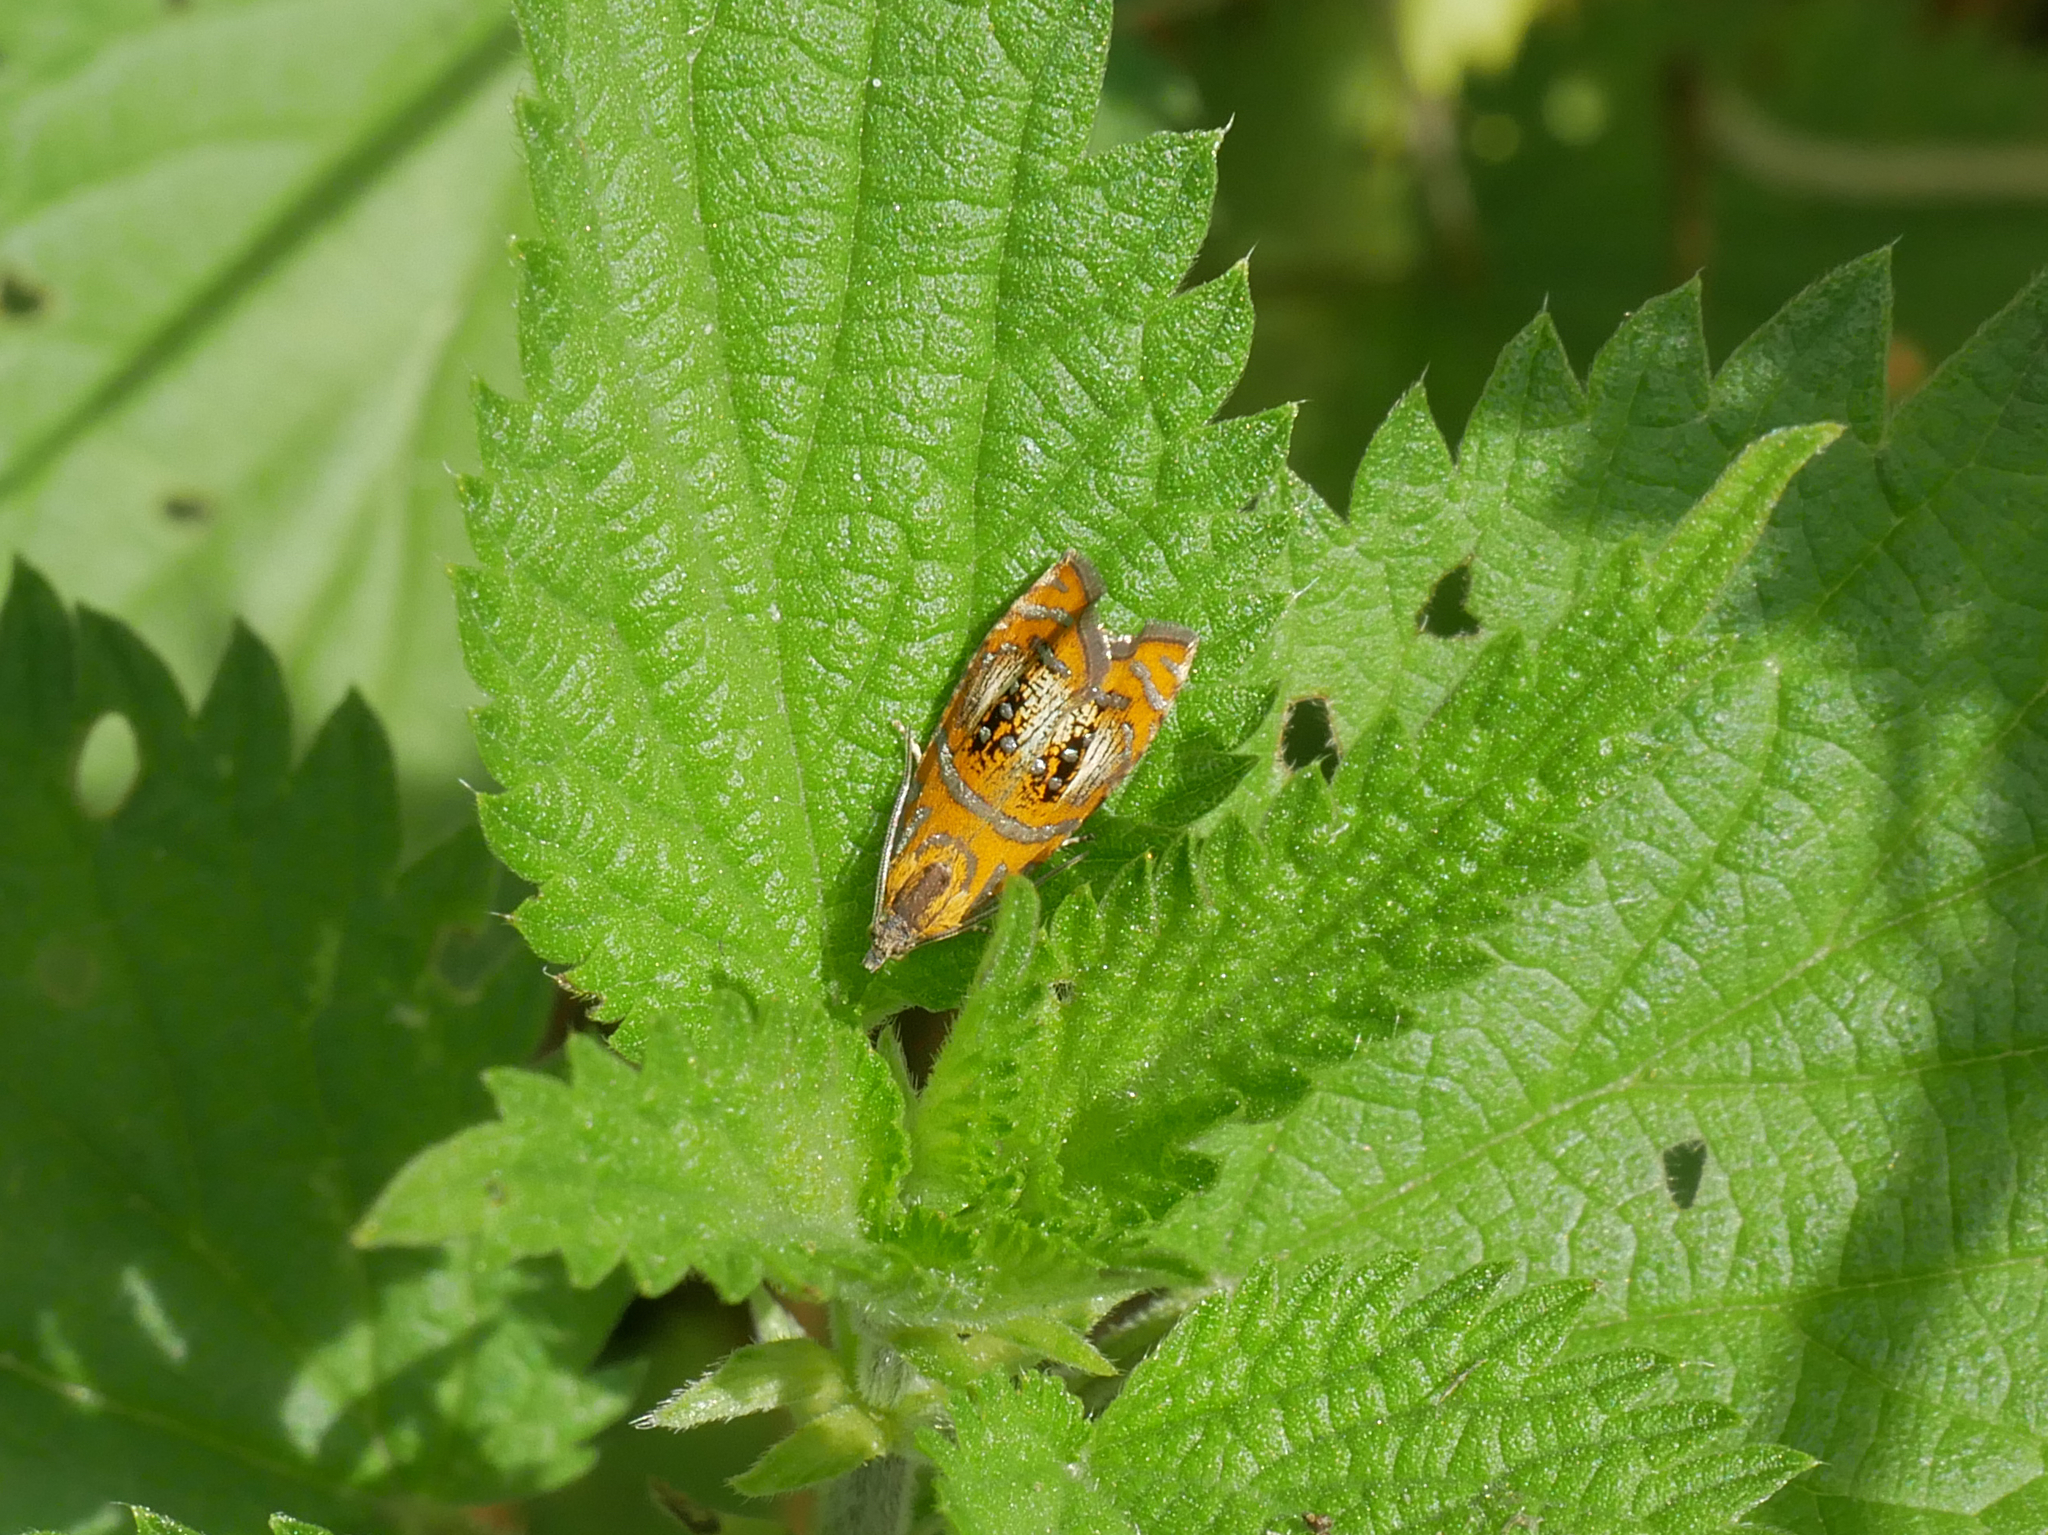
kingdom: Animalia
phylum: Arthropoda
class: Insecta
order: Lepidoptera
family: Tortricidae
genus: Olethreutes
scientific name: Olethreutes arcuella
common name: Arched marble
